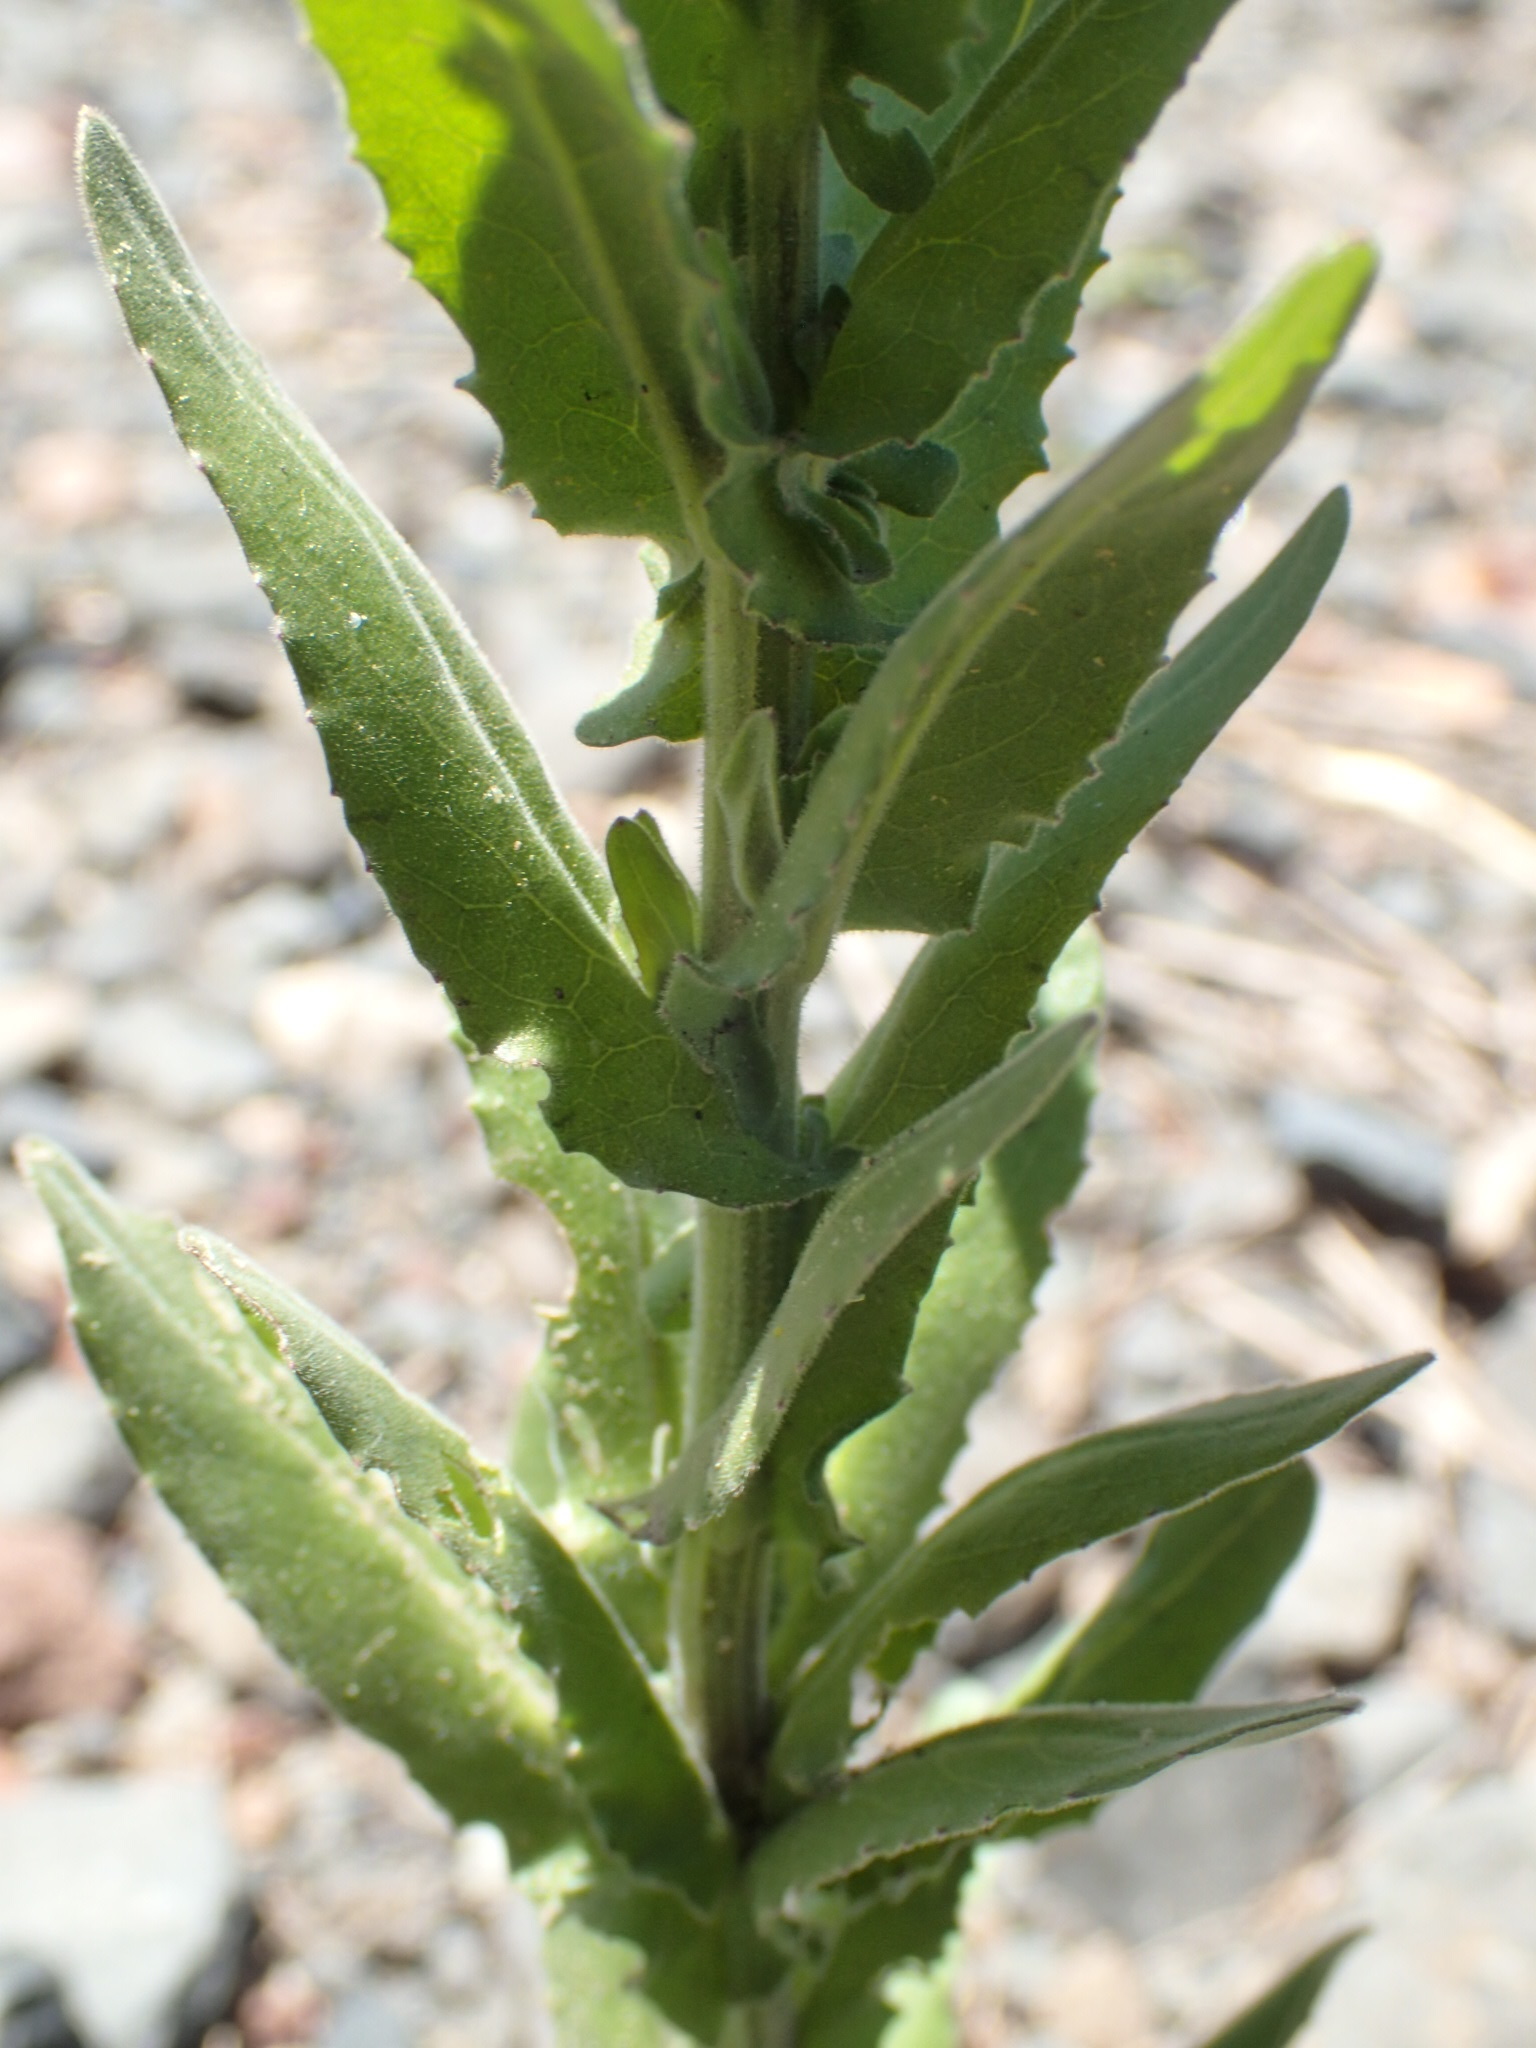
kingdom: Plantae
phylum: Tracheophyta
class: Magnoliopsida
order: Brassicales
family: Brassicaceae
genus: Lepidium
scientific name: Lepidium campestre
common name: Field pepperwort
